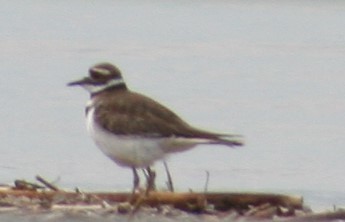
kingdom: Animalia
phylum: Chordata
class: Aves
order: Charadriiformes
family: Charadriidae
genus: Charadrius
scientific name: Charadrius vociferus
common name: Killdeer
